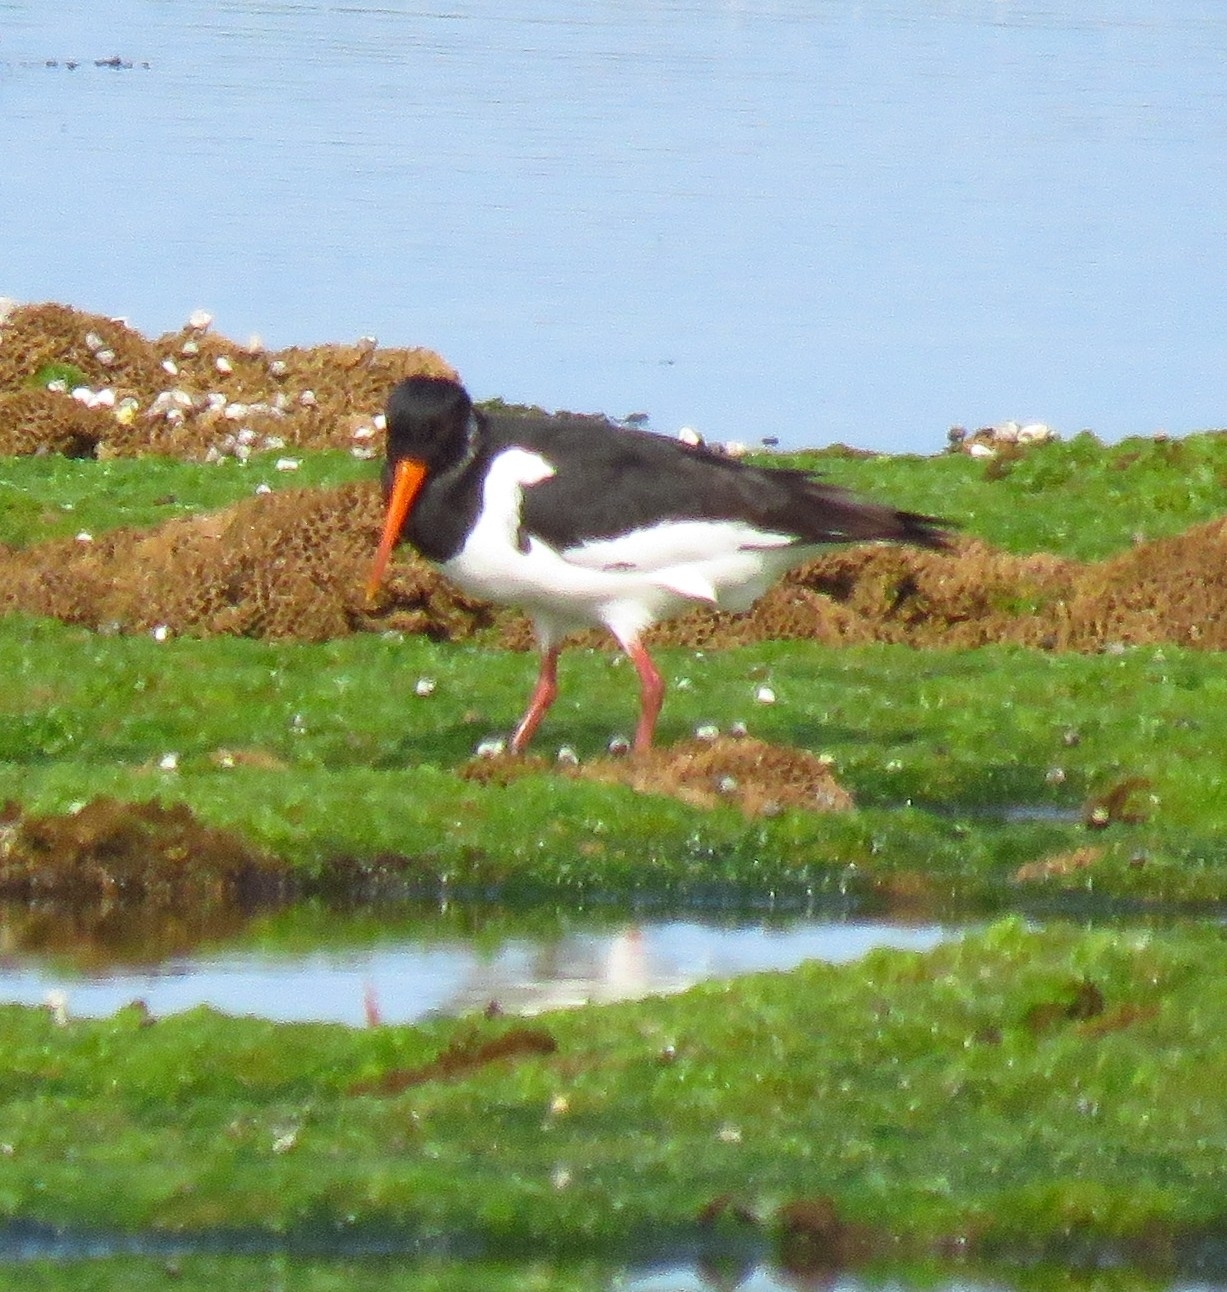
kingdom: Animalia
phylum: Chordata
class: Aves
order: Charadriiformes
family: Haematopodidae
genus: Haematopus
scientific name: Haematopus ostralegus
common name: Eurasian oystercatcher
